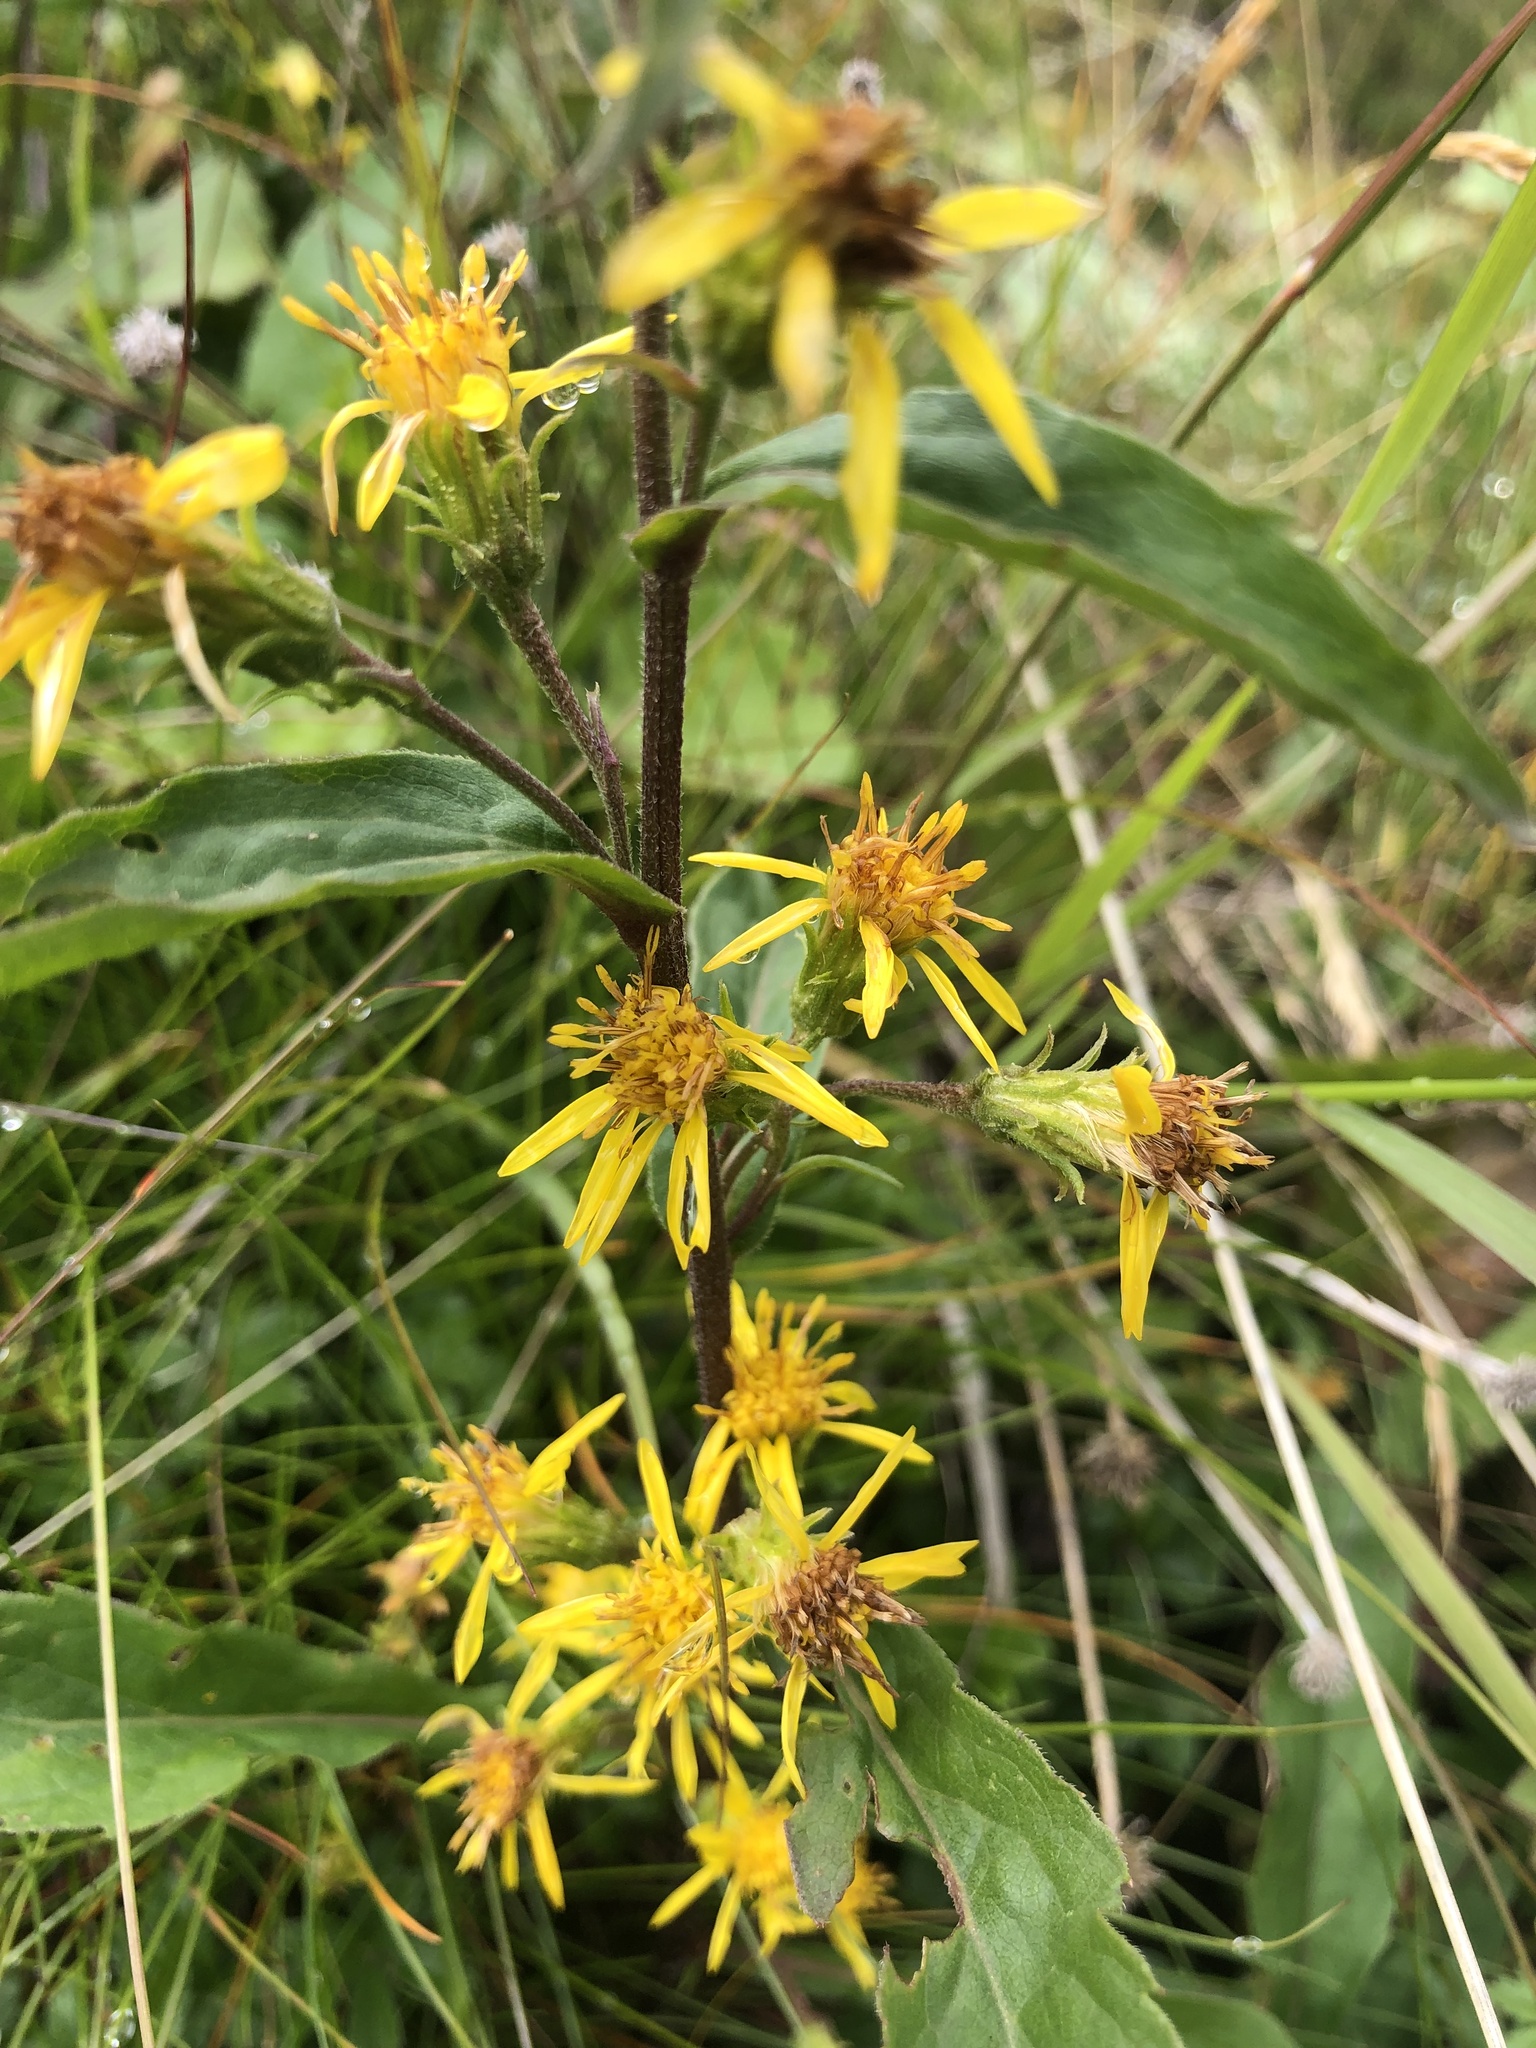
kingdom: Plantae
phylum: Tracheophyta
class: Magnoliopsida
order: Asterales
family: Asteraceae
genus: Solidago
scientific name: Solidago virgaurea
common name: Goldenrod
